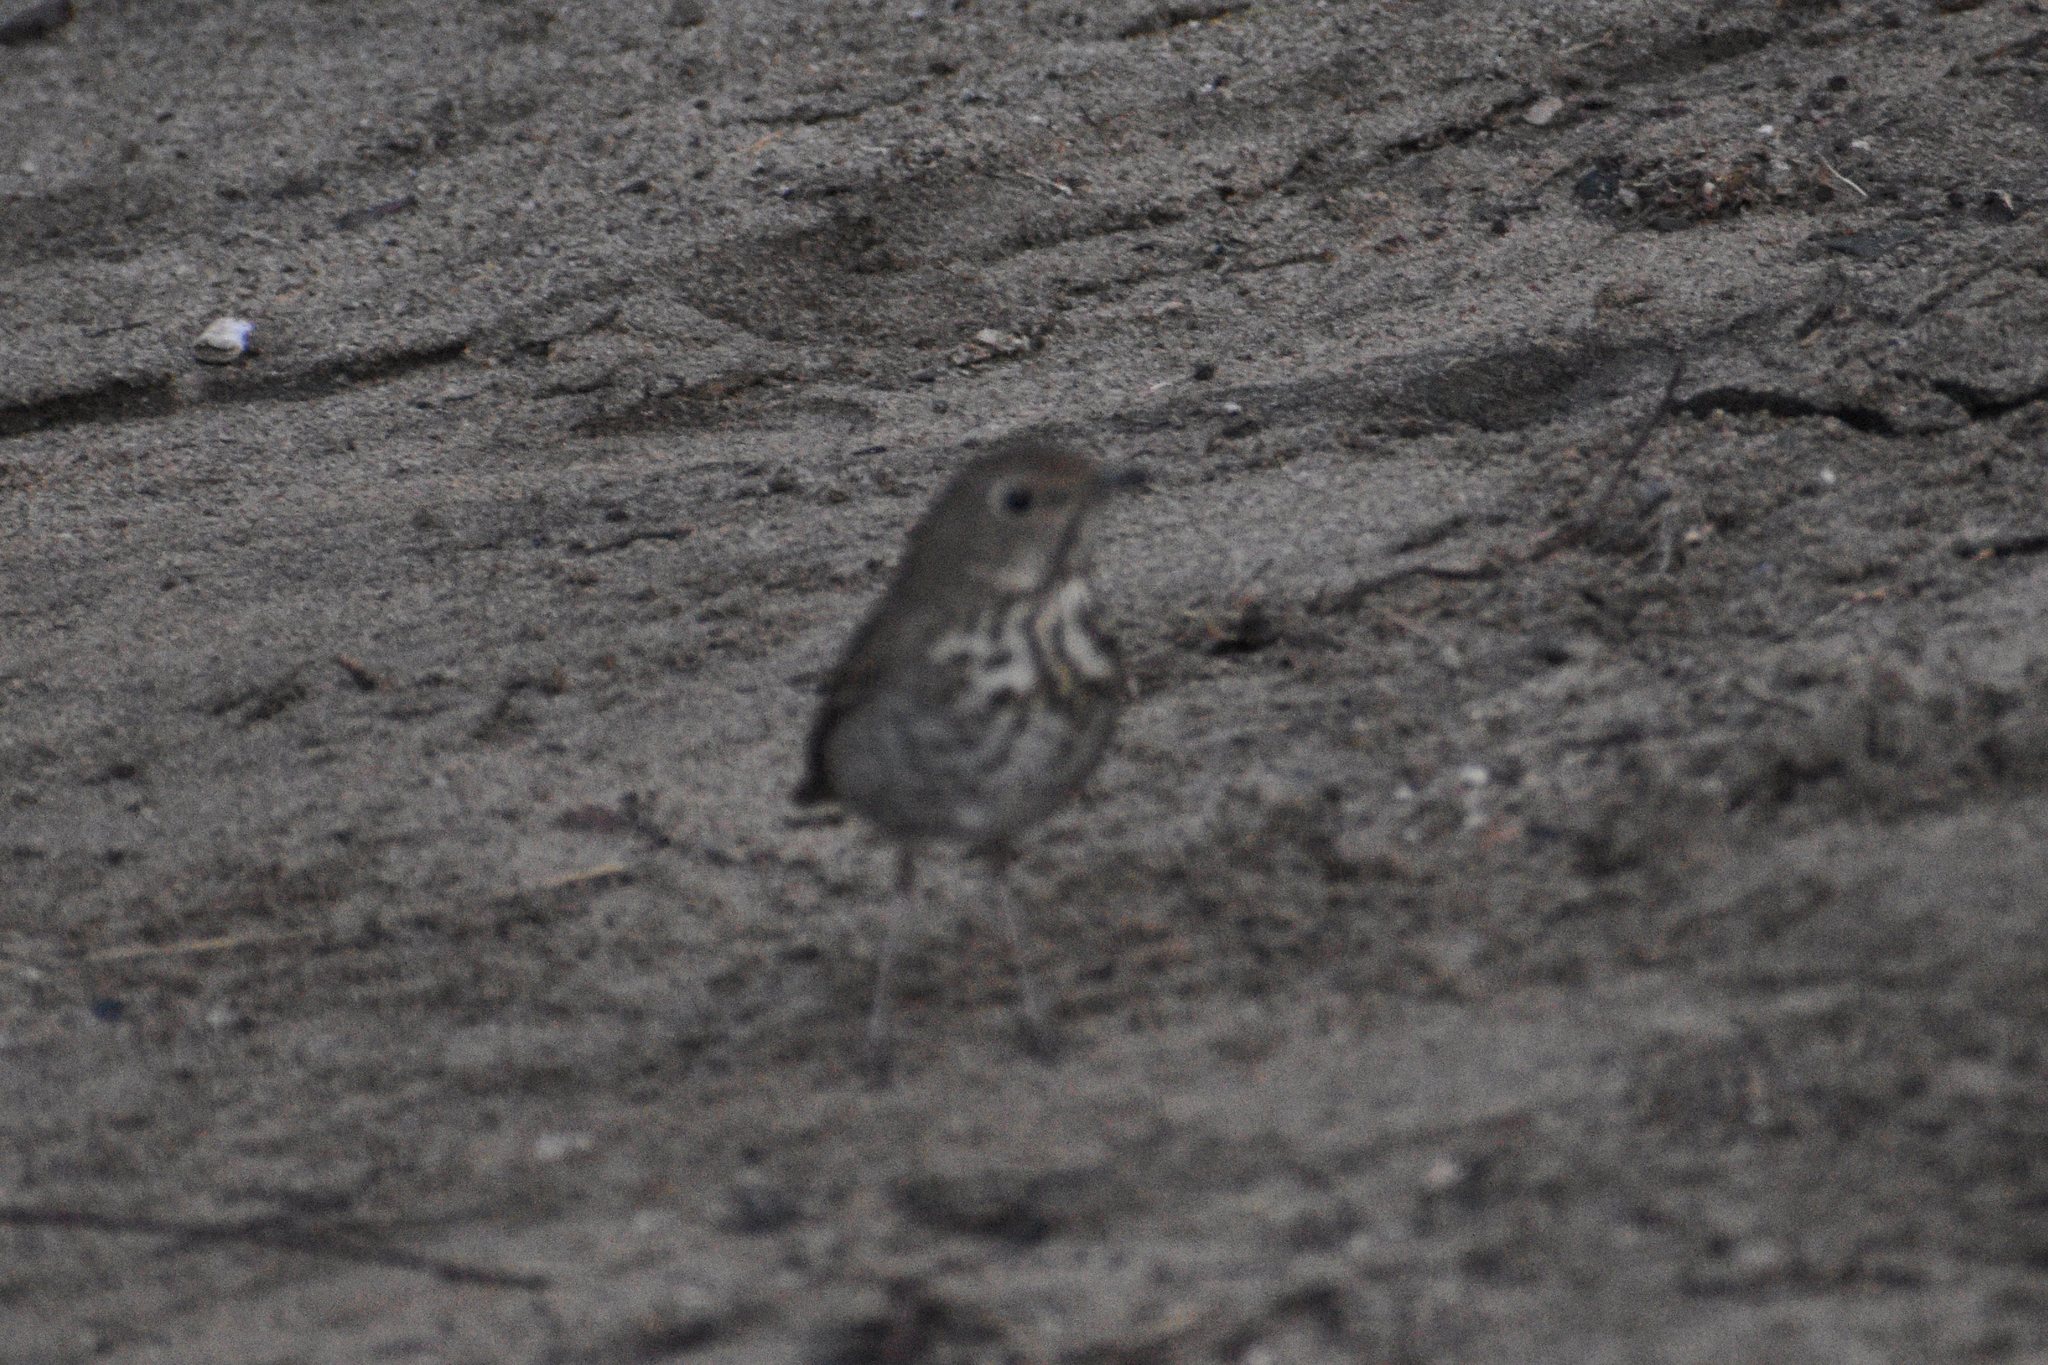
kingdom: Animalia
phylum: Chordata
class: Aves
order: Passeriformes
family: Turdidae
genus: Catharus
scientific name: Catharus guttatus
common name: Hermit thrush
